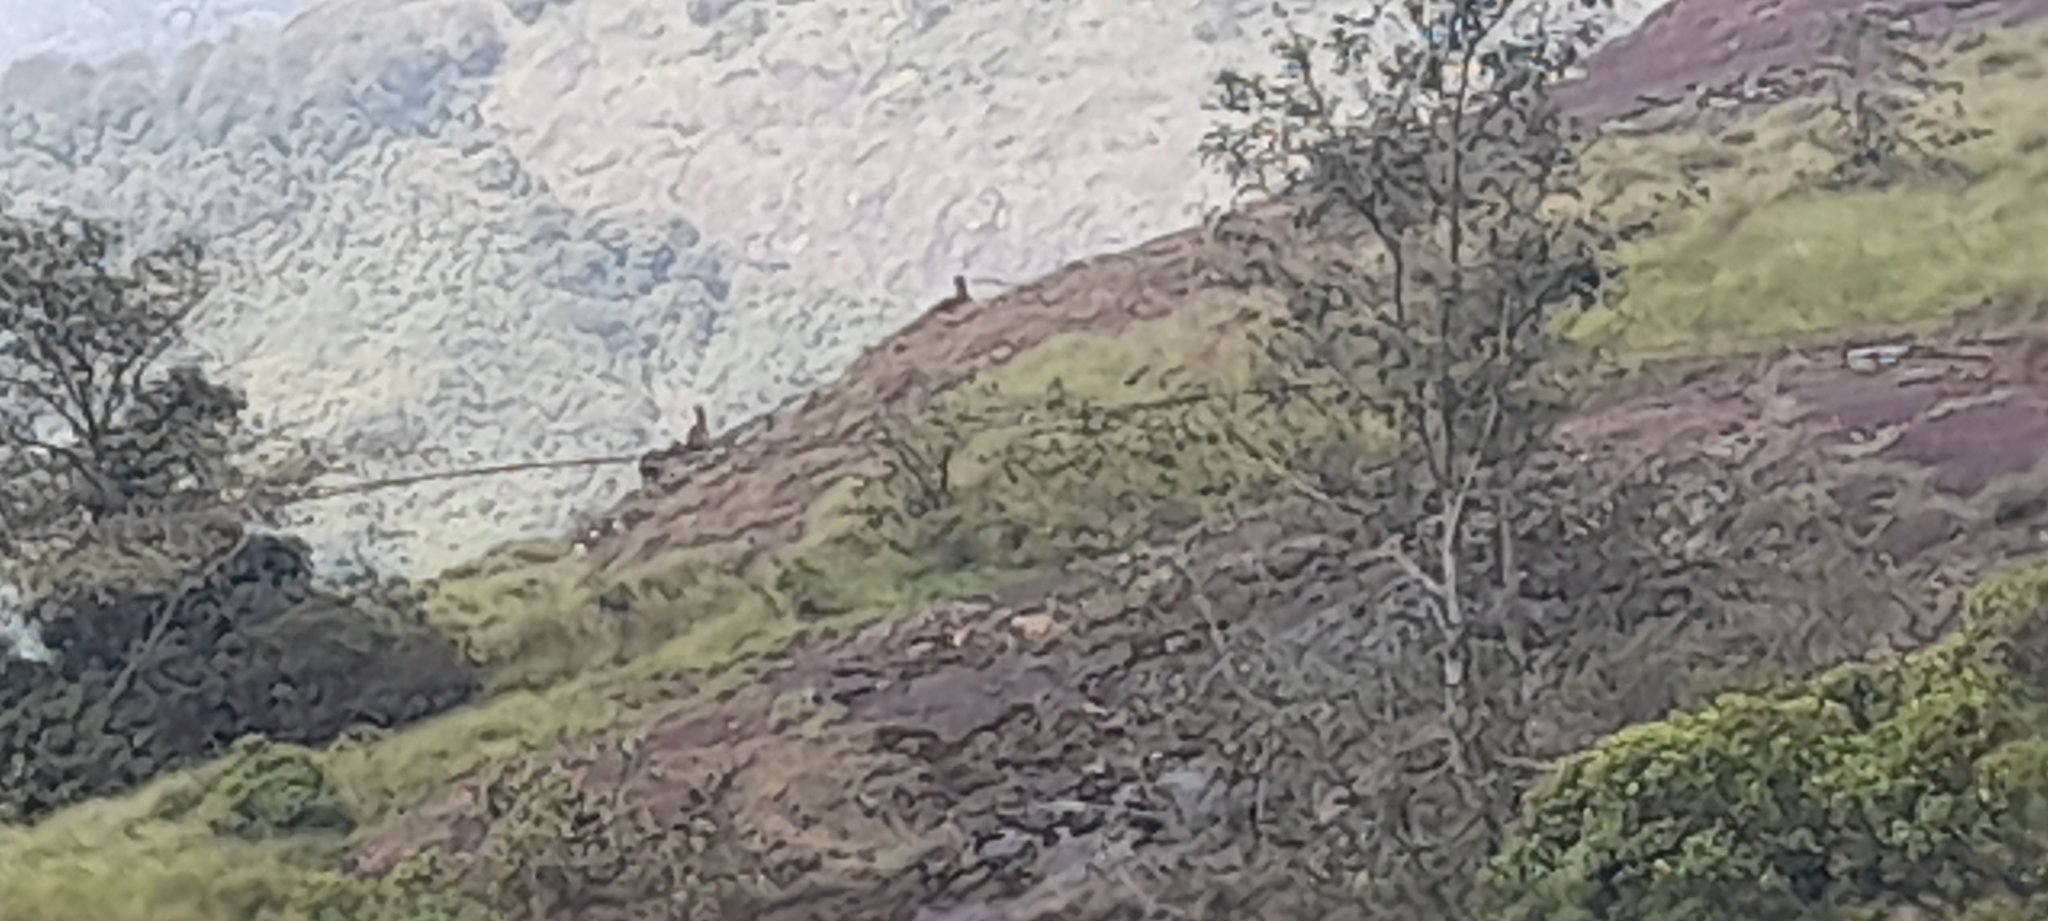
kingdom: Animalia
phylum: Chordata
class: Mammalia
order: Artiodactyla
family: Bovidae
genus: Hemitragus
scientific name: Hemitragus hylocrius
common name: Nilgiri tahr
